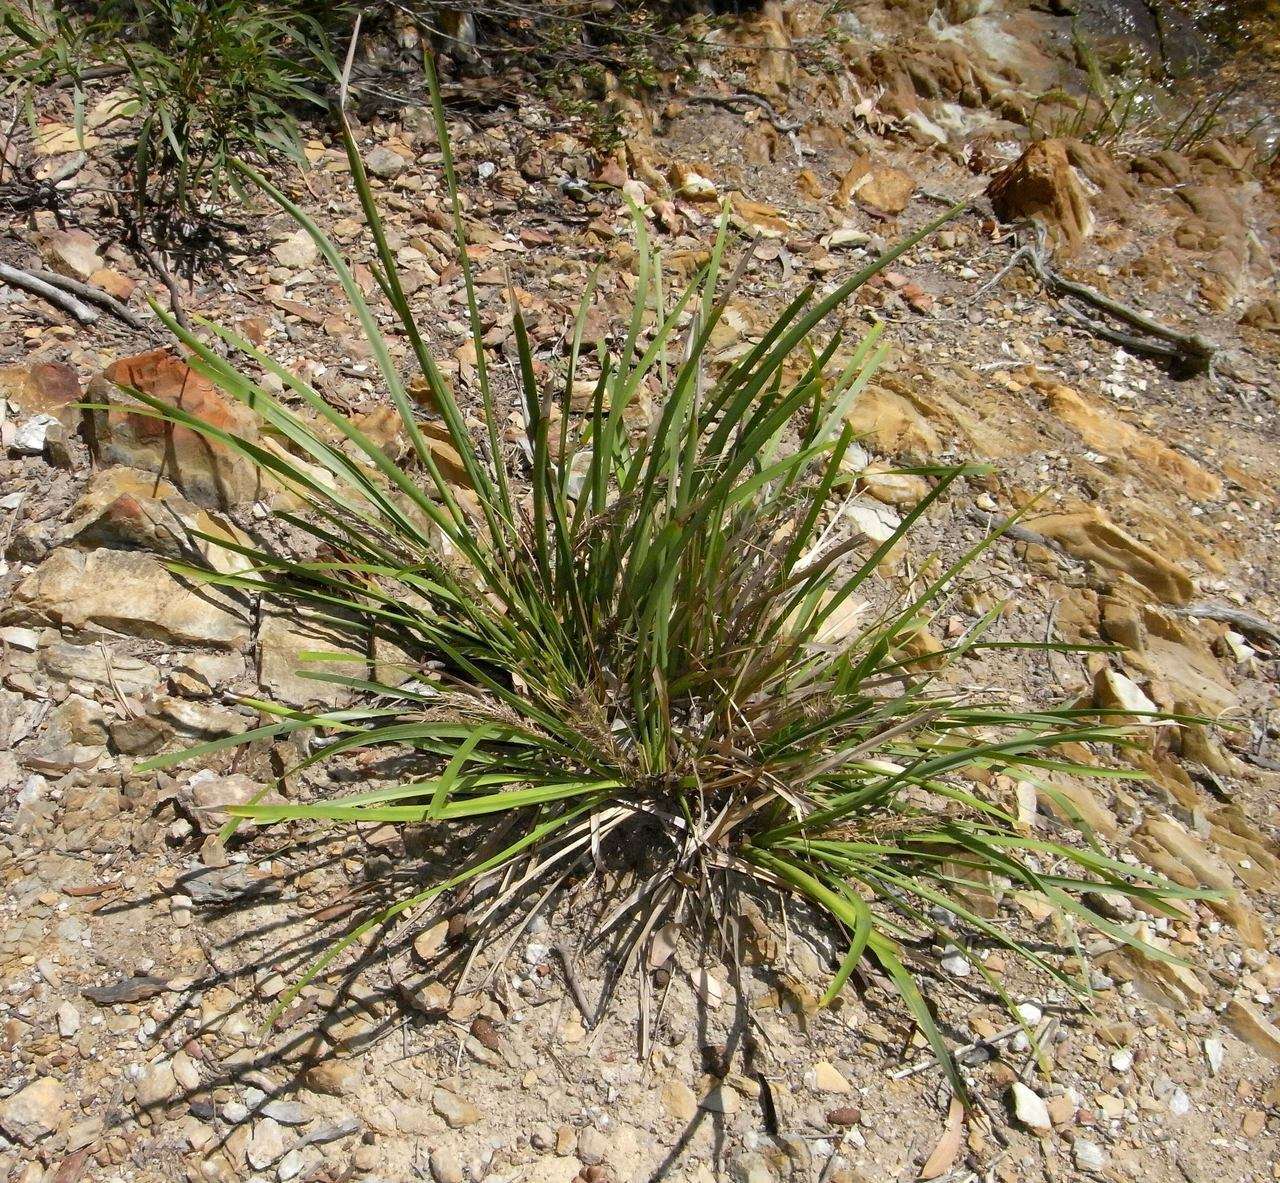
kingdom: Plantae
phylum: Tracheophyta
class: Liliopsida
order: Asparagales
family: Asparagaceae
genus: Lomandra
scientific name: Lomandra longifolia
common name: Longleaf mat-rush
